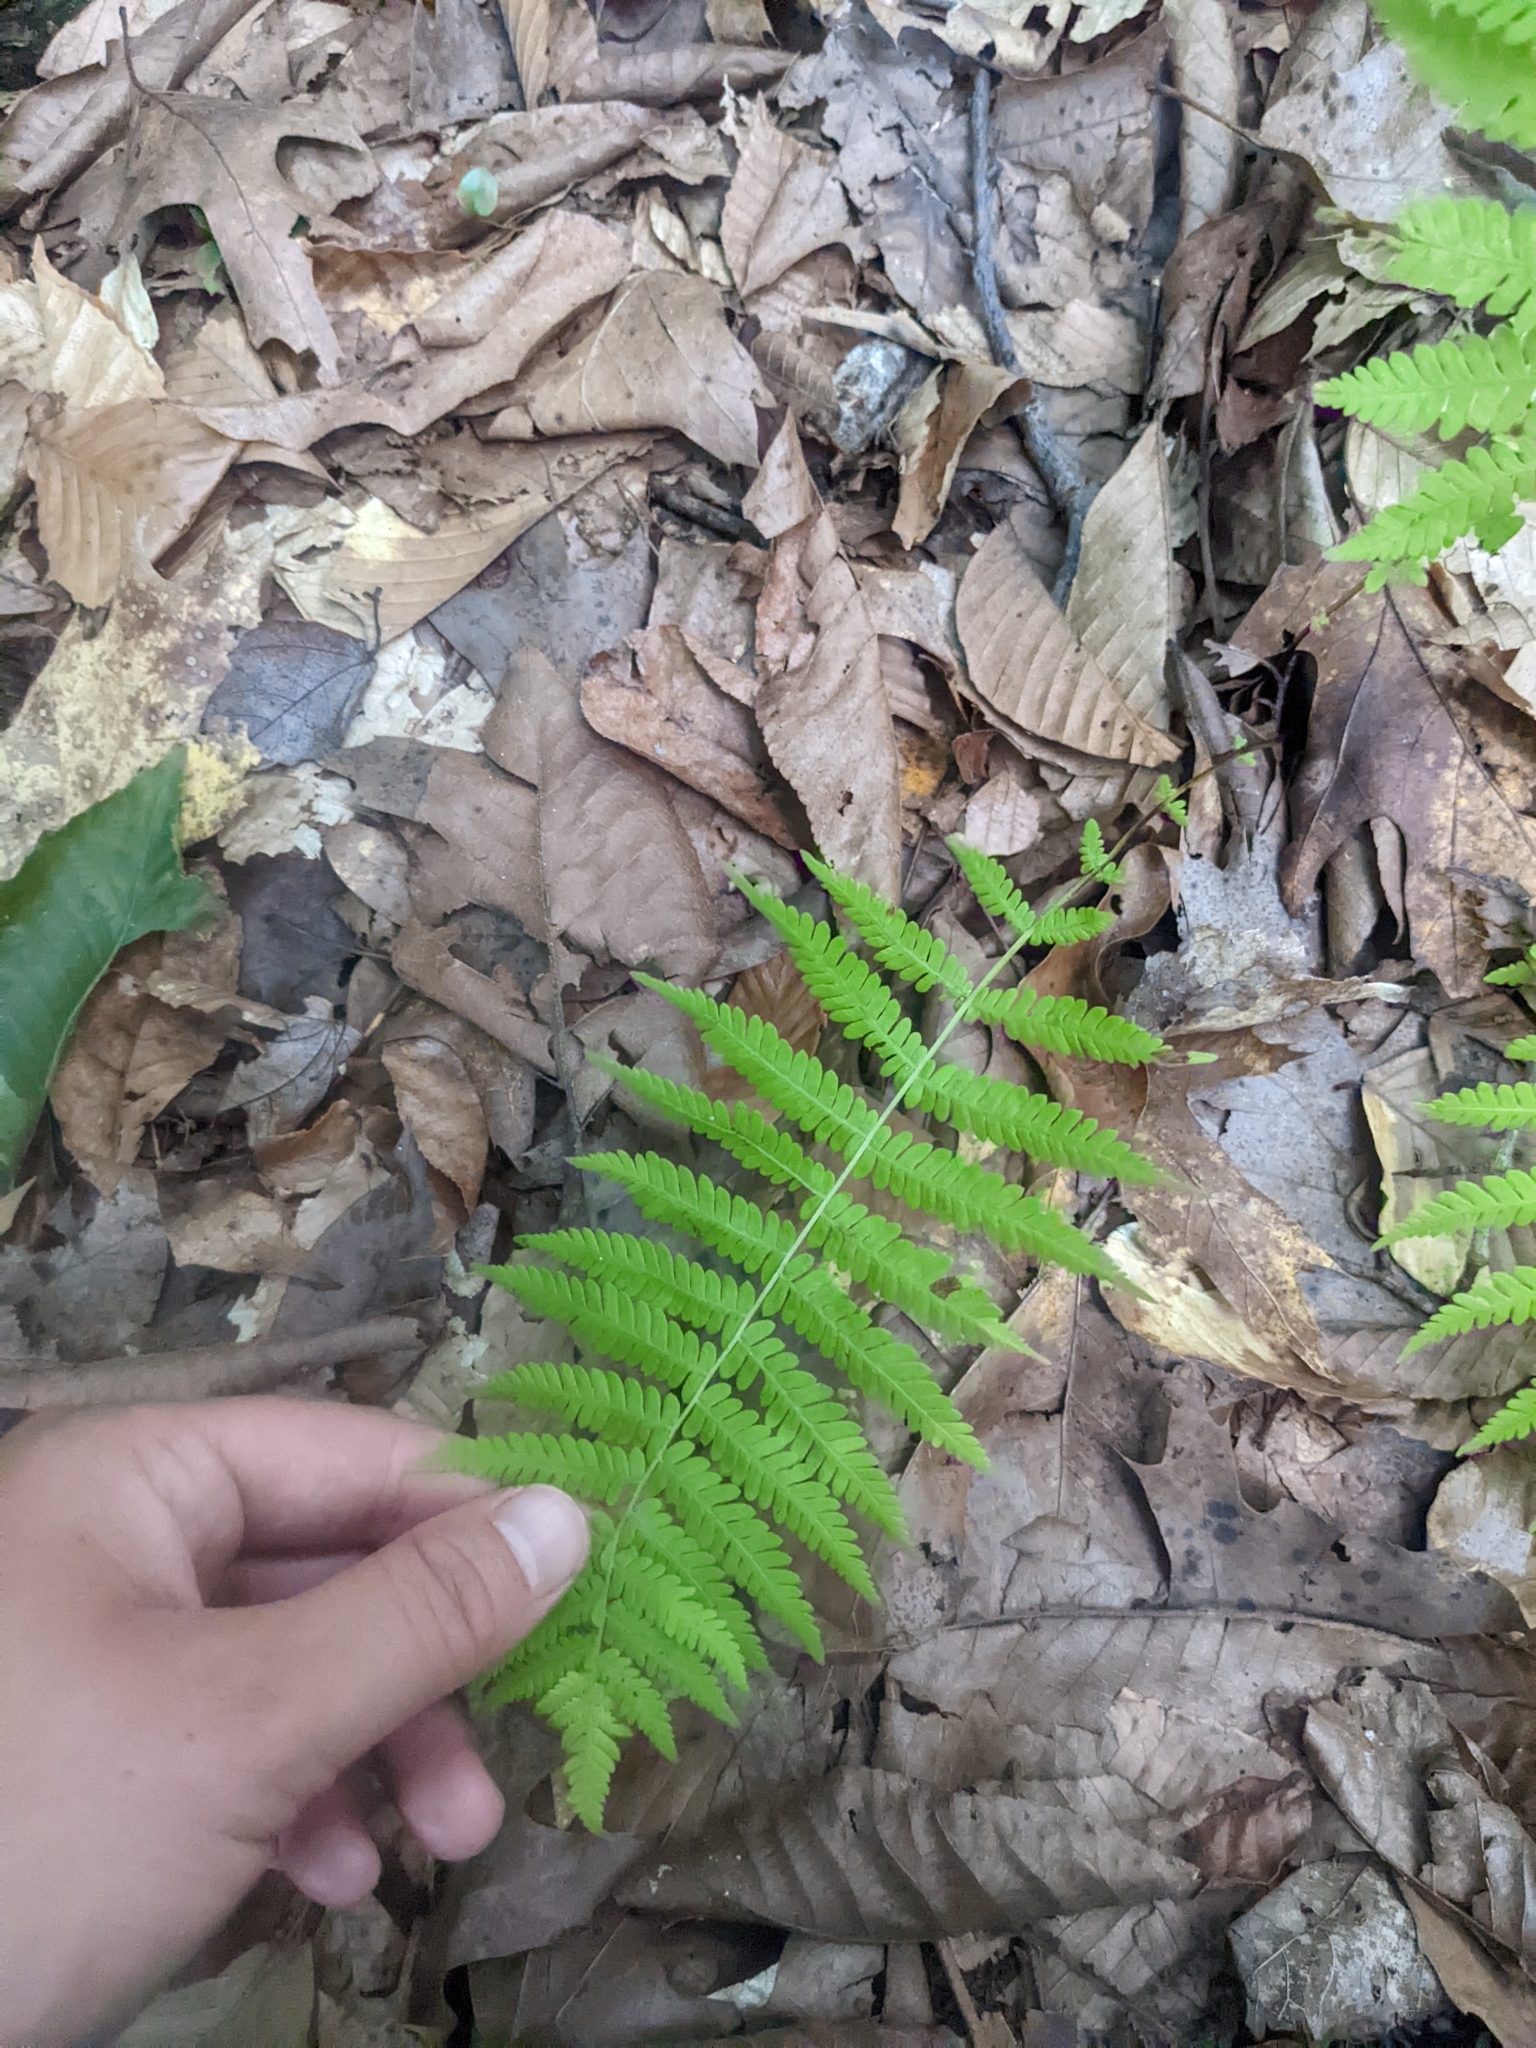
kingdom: Plantae
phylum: Tracheophyta
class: Polypodiopsida
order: Polypodiales
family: Thelypteridaceae
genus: Amauropelta
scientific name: Amauropelta noveboracensis
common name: New york fern
